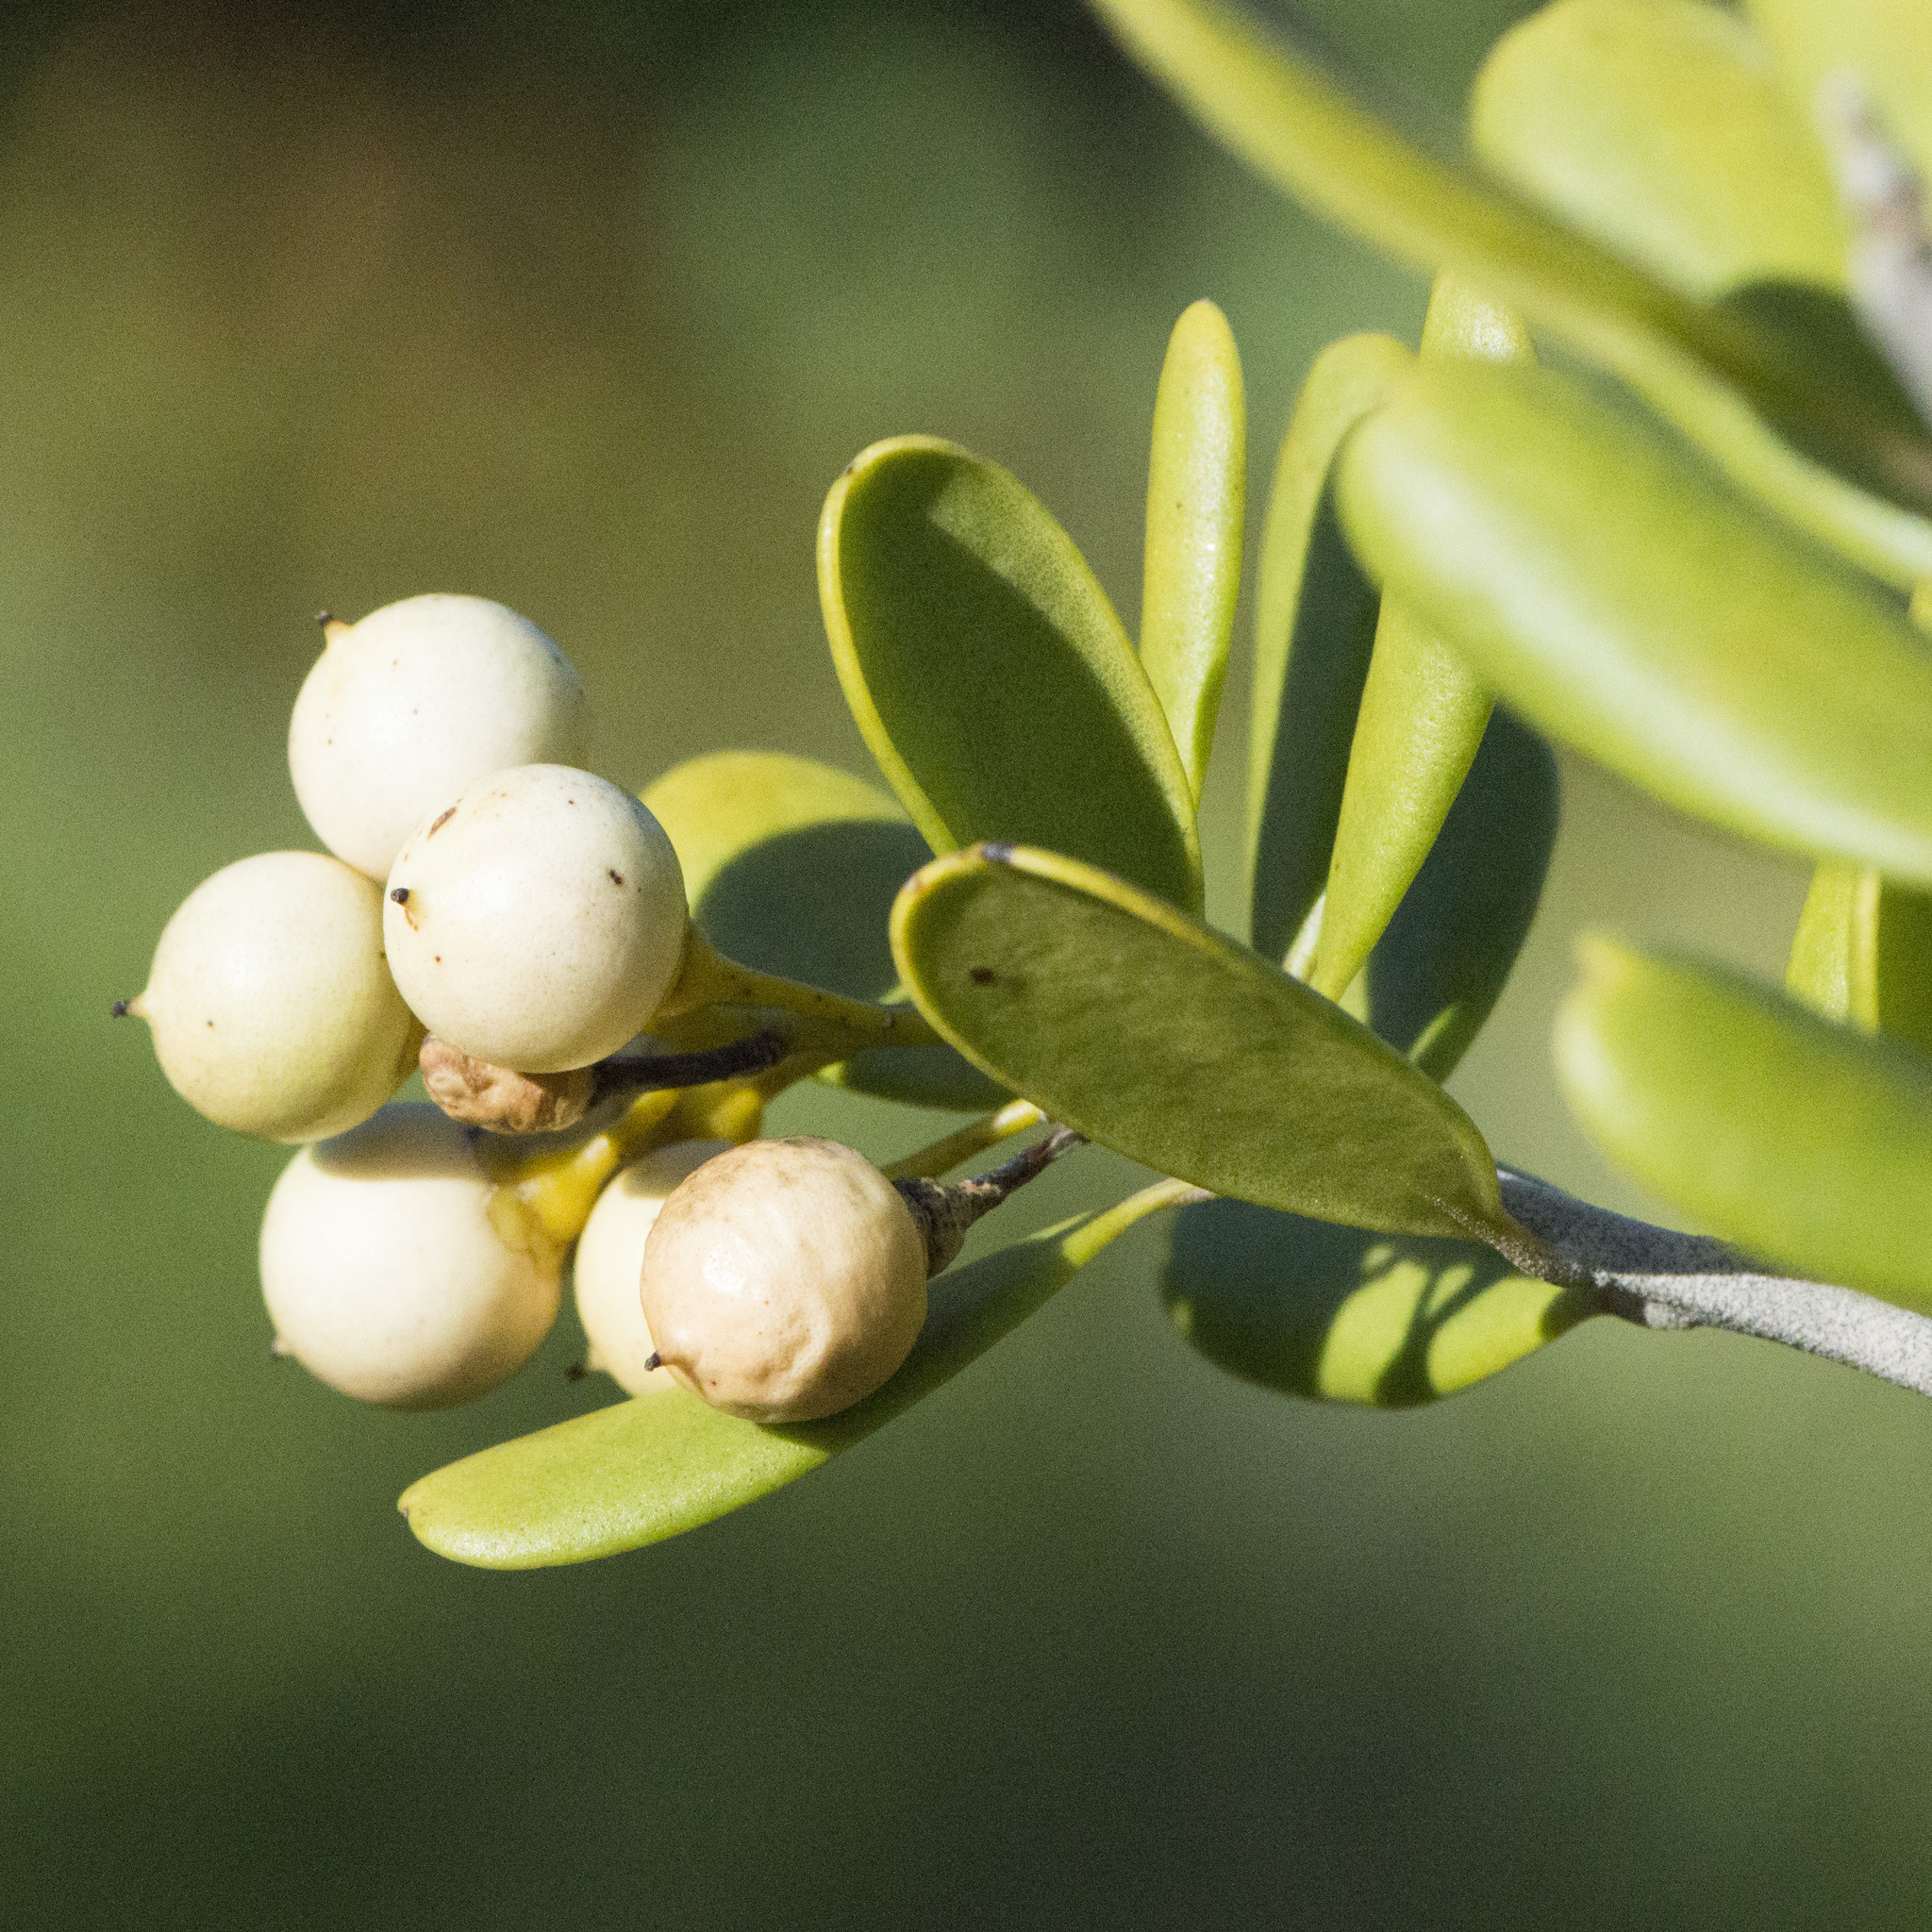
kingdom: Plantae
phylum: Tracheophyta
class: Magnoliopsida
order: Ericales
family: Primulaceae
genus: Jacquinia
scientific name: Jacquinia keyensis
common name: Joebush
